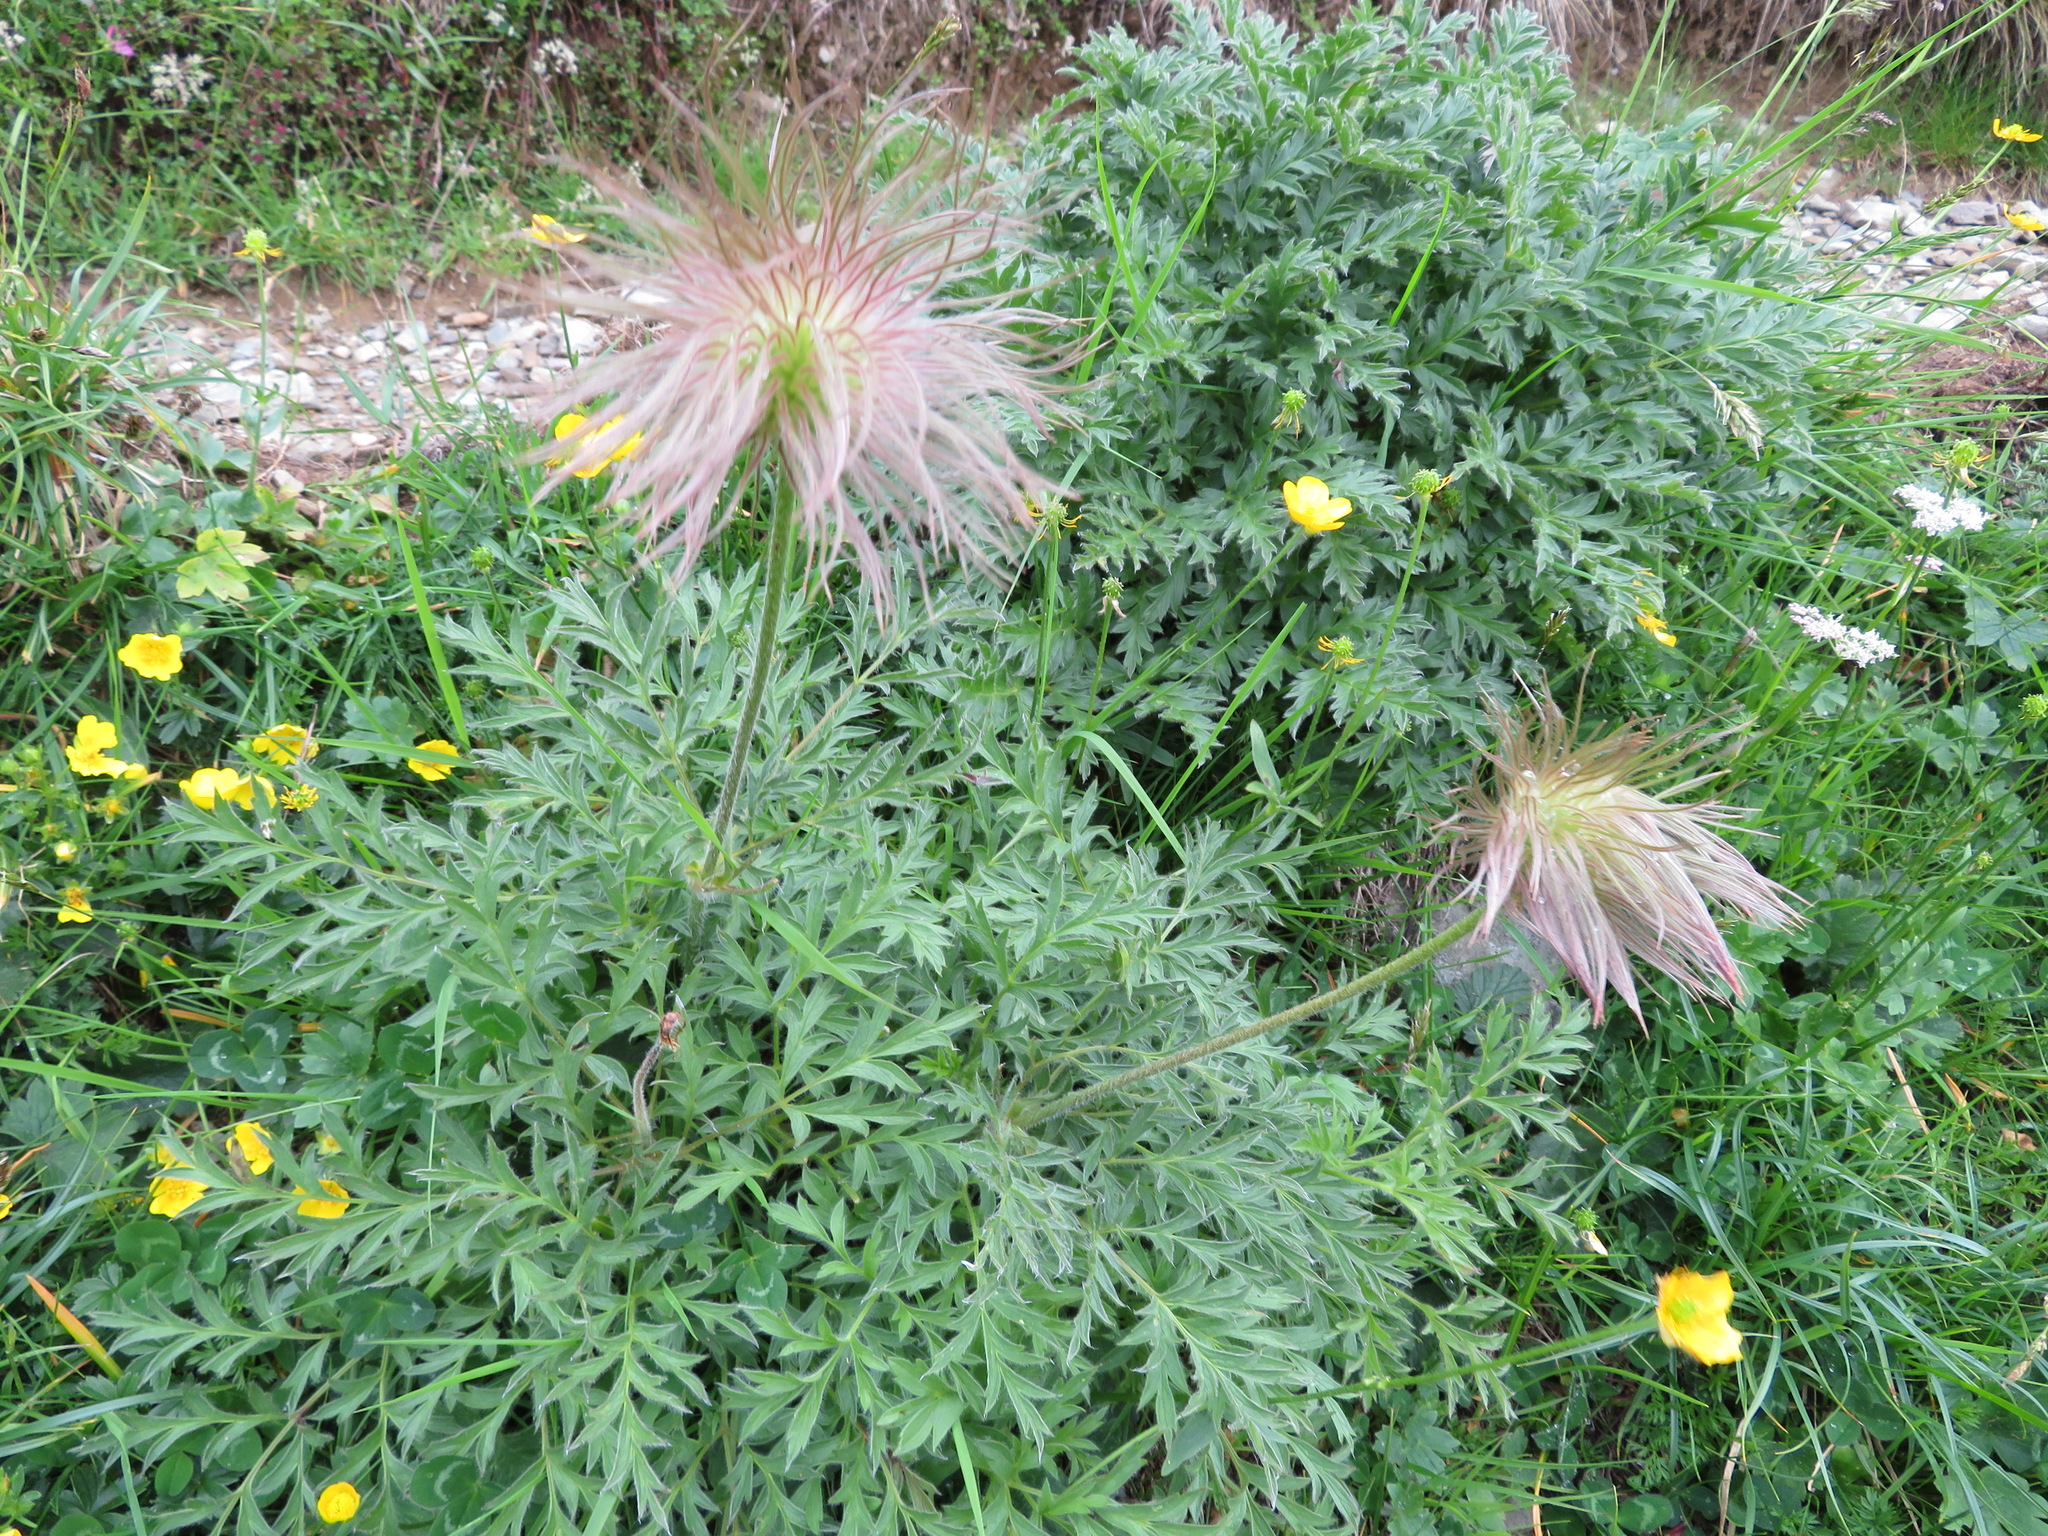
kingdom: Plantae
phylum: Tracheophyta
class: Magnoliopsida
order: Ranunculales
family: Ranunculaceae
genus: Pulsatilla
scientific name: Pulsatilla alpina
